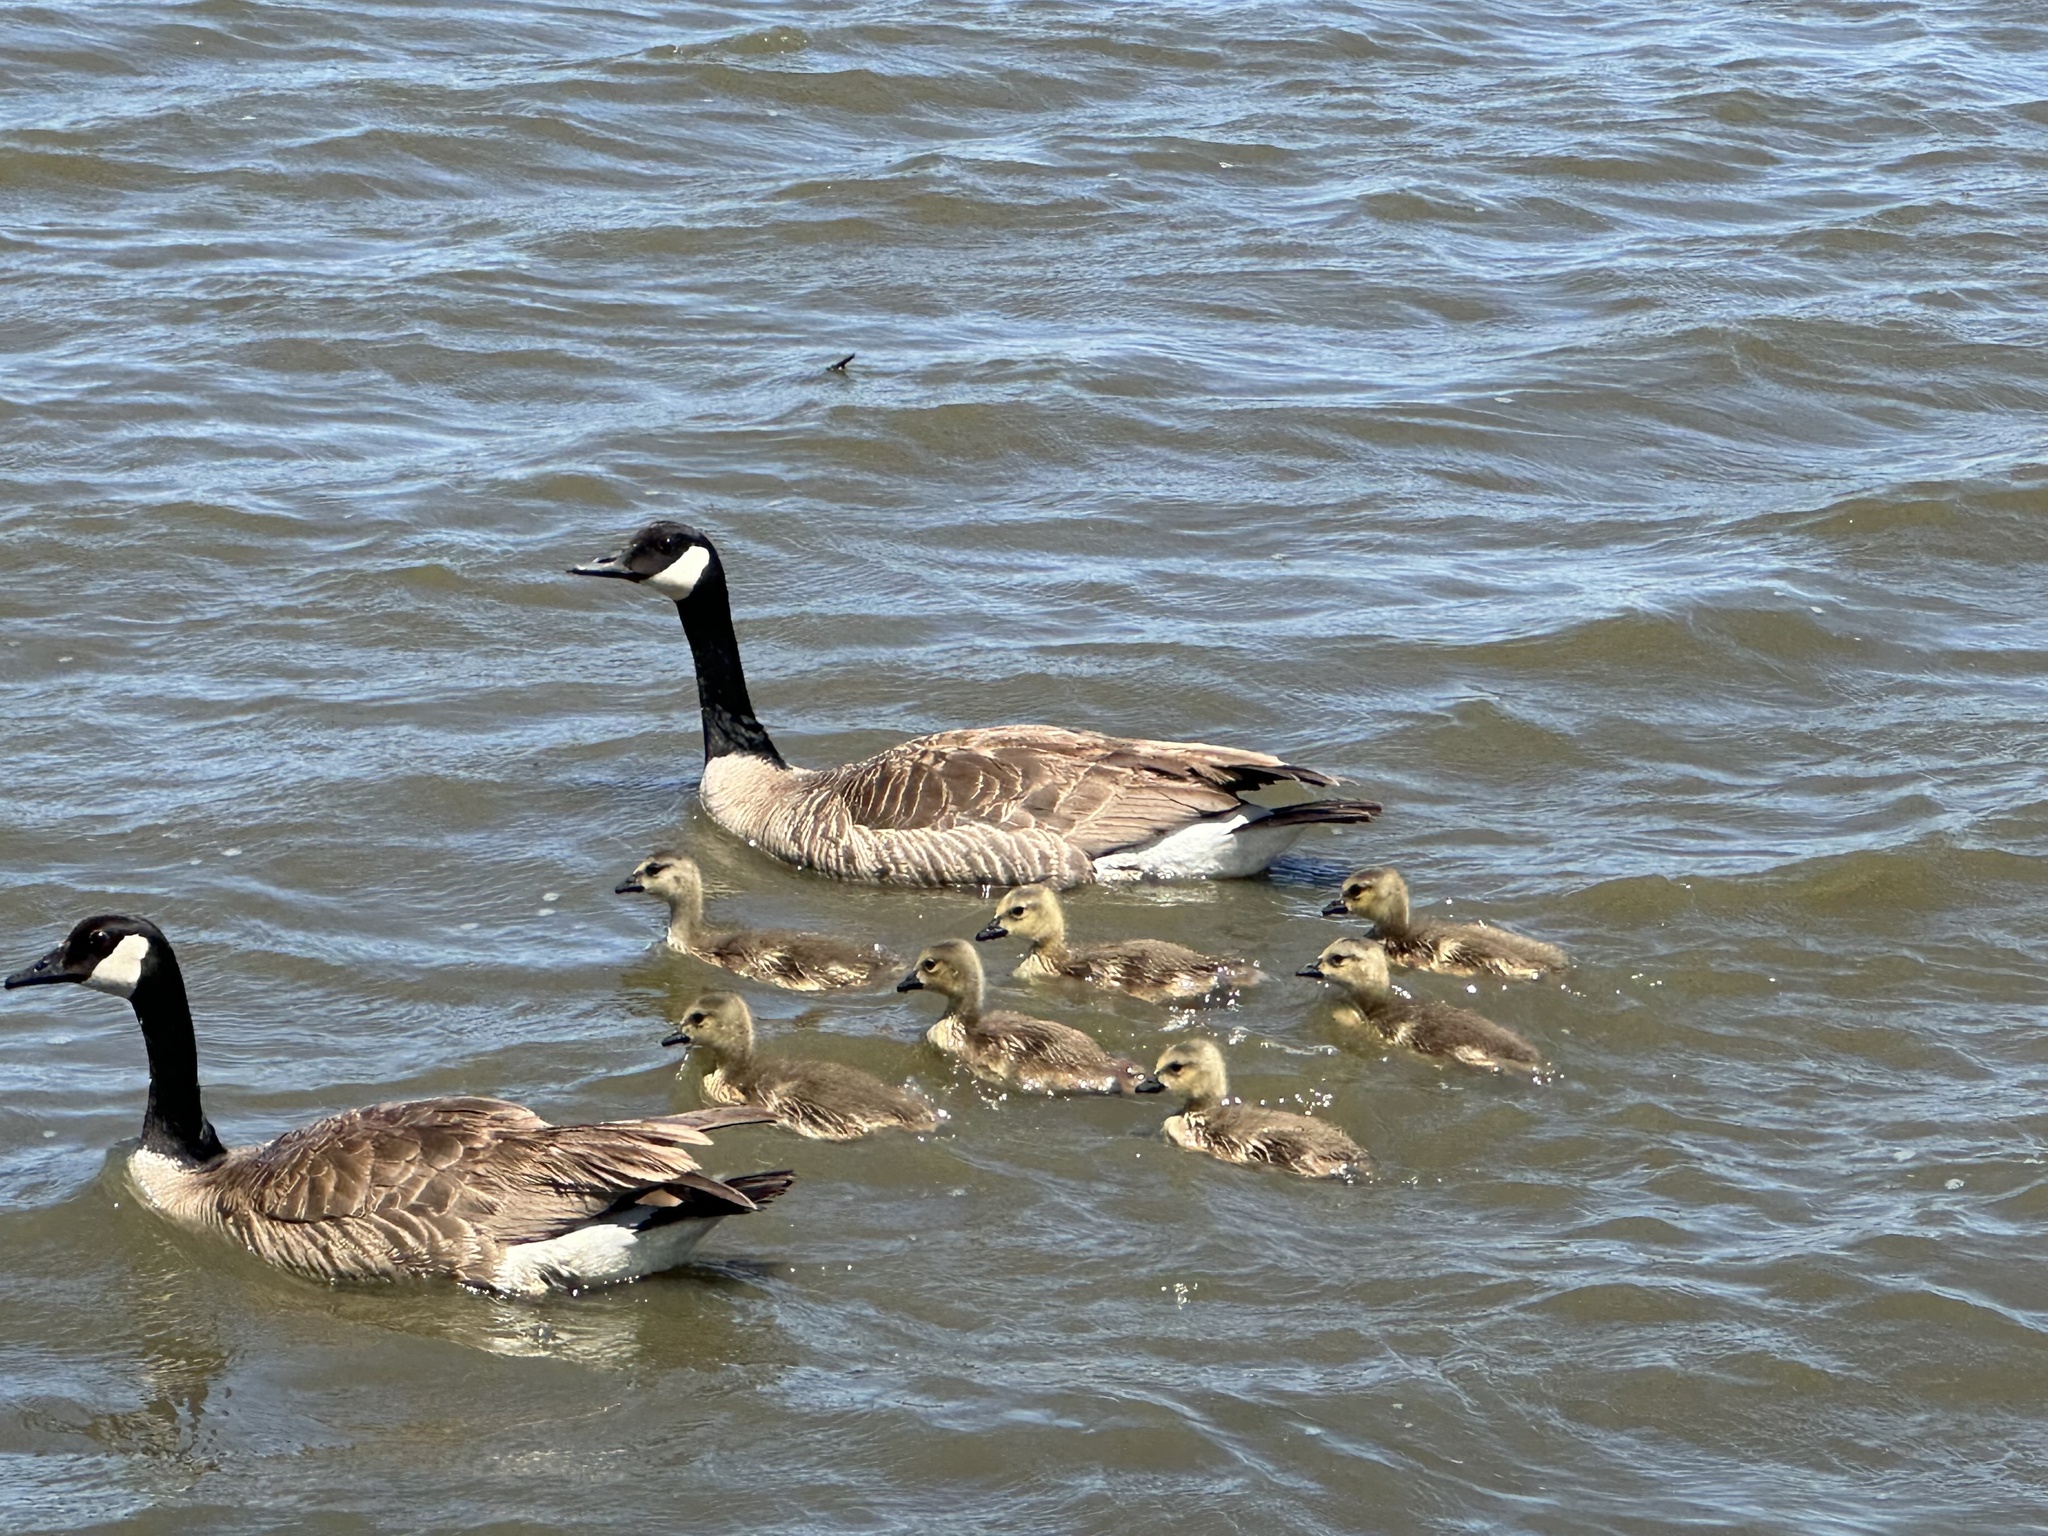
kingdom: Animalia
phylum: Chordata
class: Aves
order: Anseriformes
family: Anatidae
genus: Branta
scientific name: Branta canadensis
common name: Canada goose
